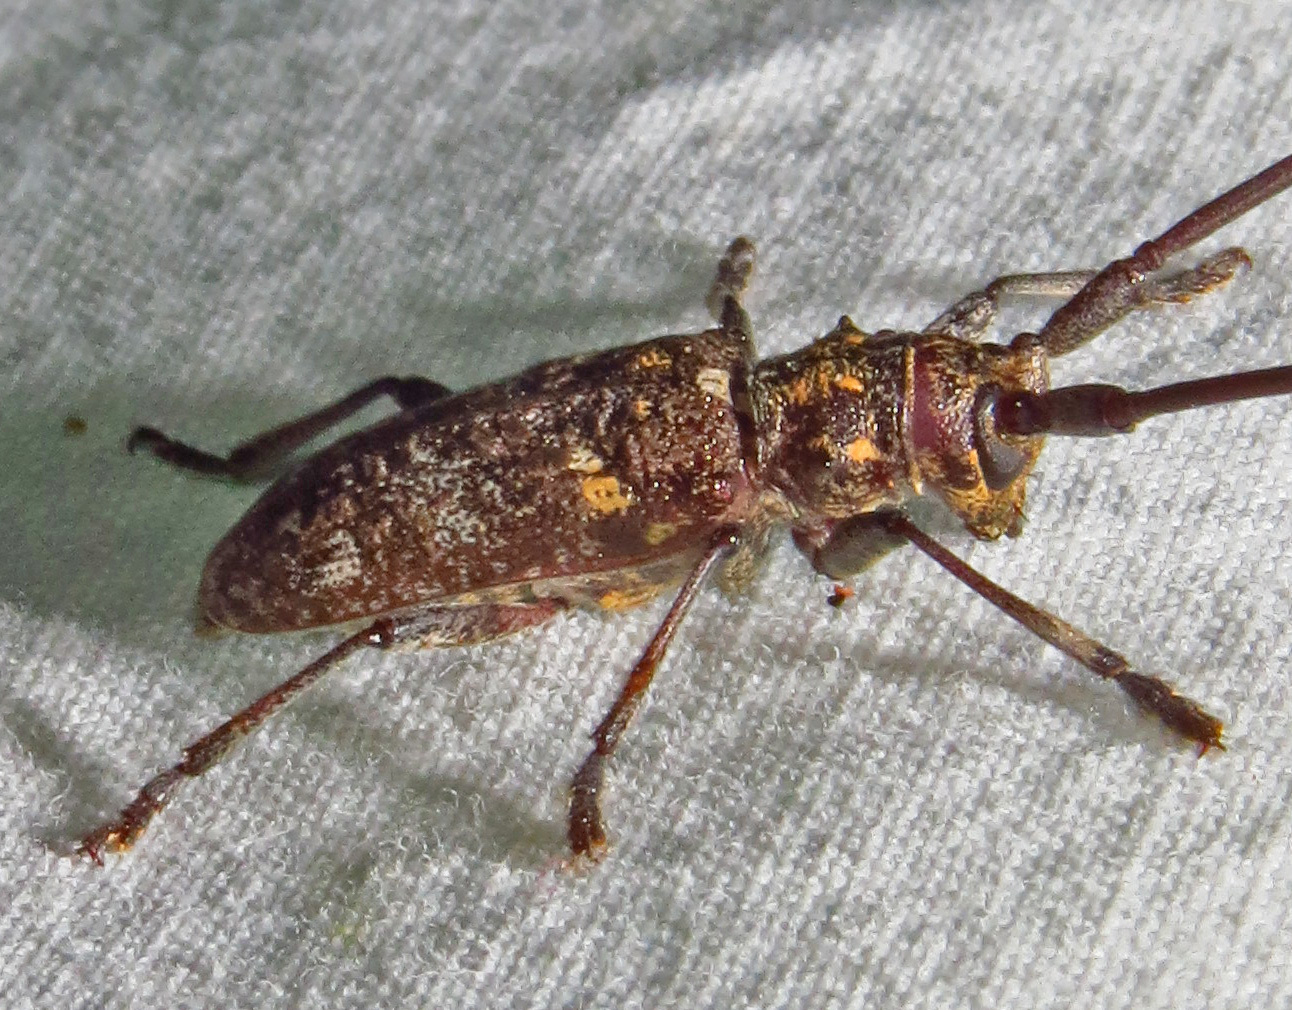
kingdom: Animalia
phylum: Arthropoda
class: Insecta
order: Coleoptera
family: Cerambycidae
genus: Monochamus
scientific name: Monochamus carolinensis
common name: Carolina pine sawyer
